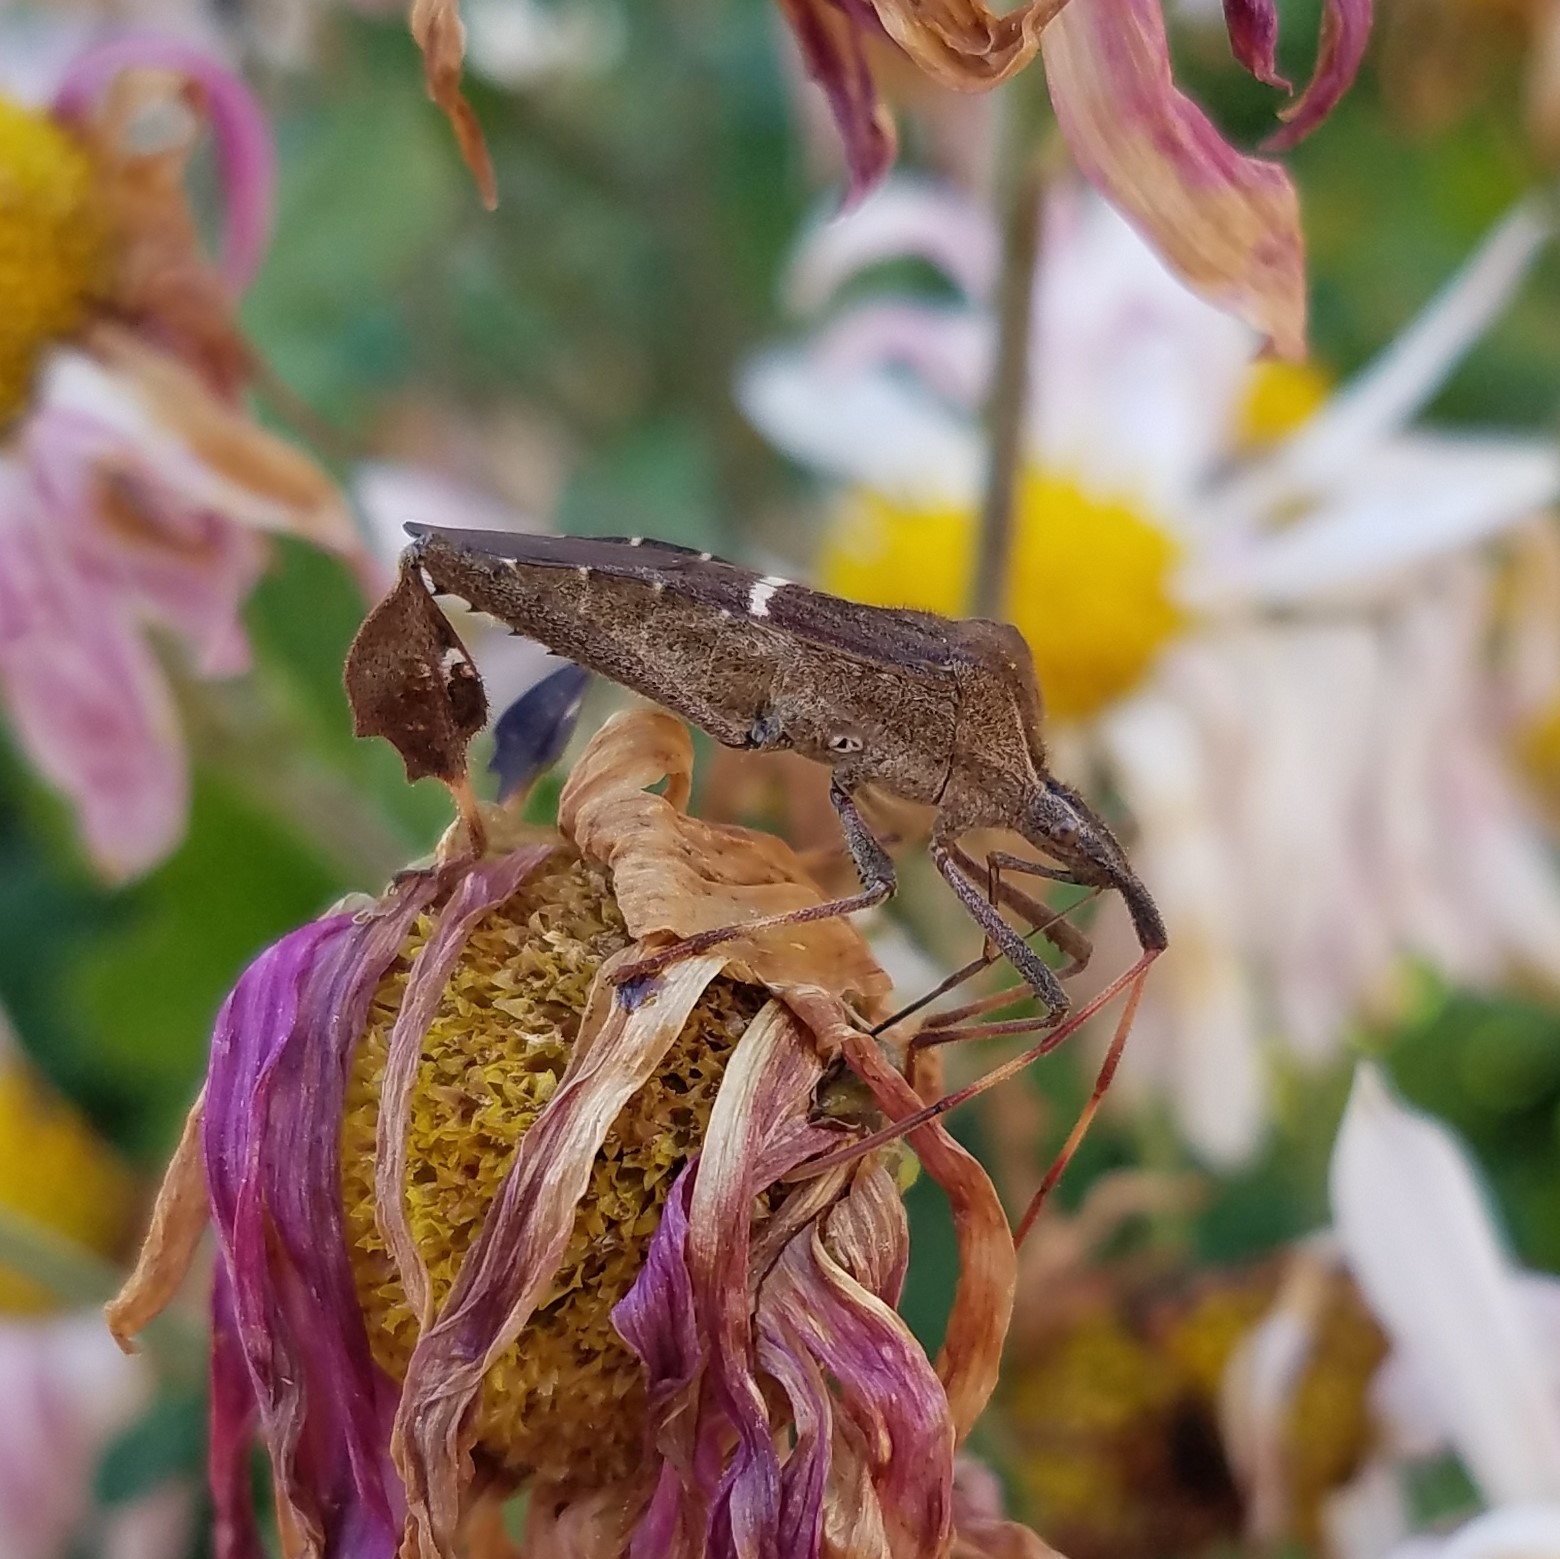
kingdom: Animalia
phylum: Arthropoda
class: Insecta
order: Hemiptera
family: Coreidae
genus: Leptoglossus
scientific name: Leptoglossus phyllopus
